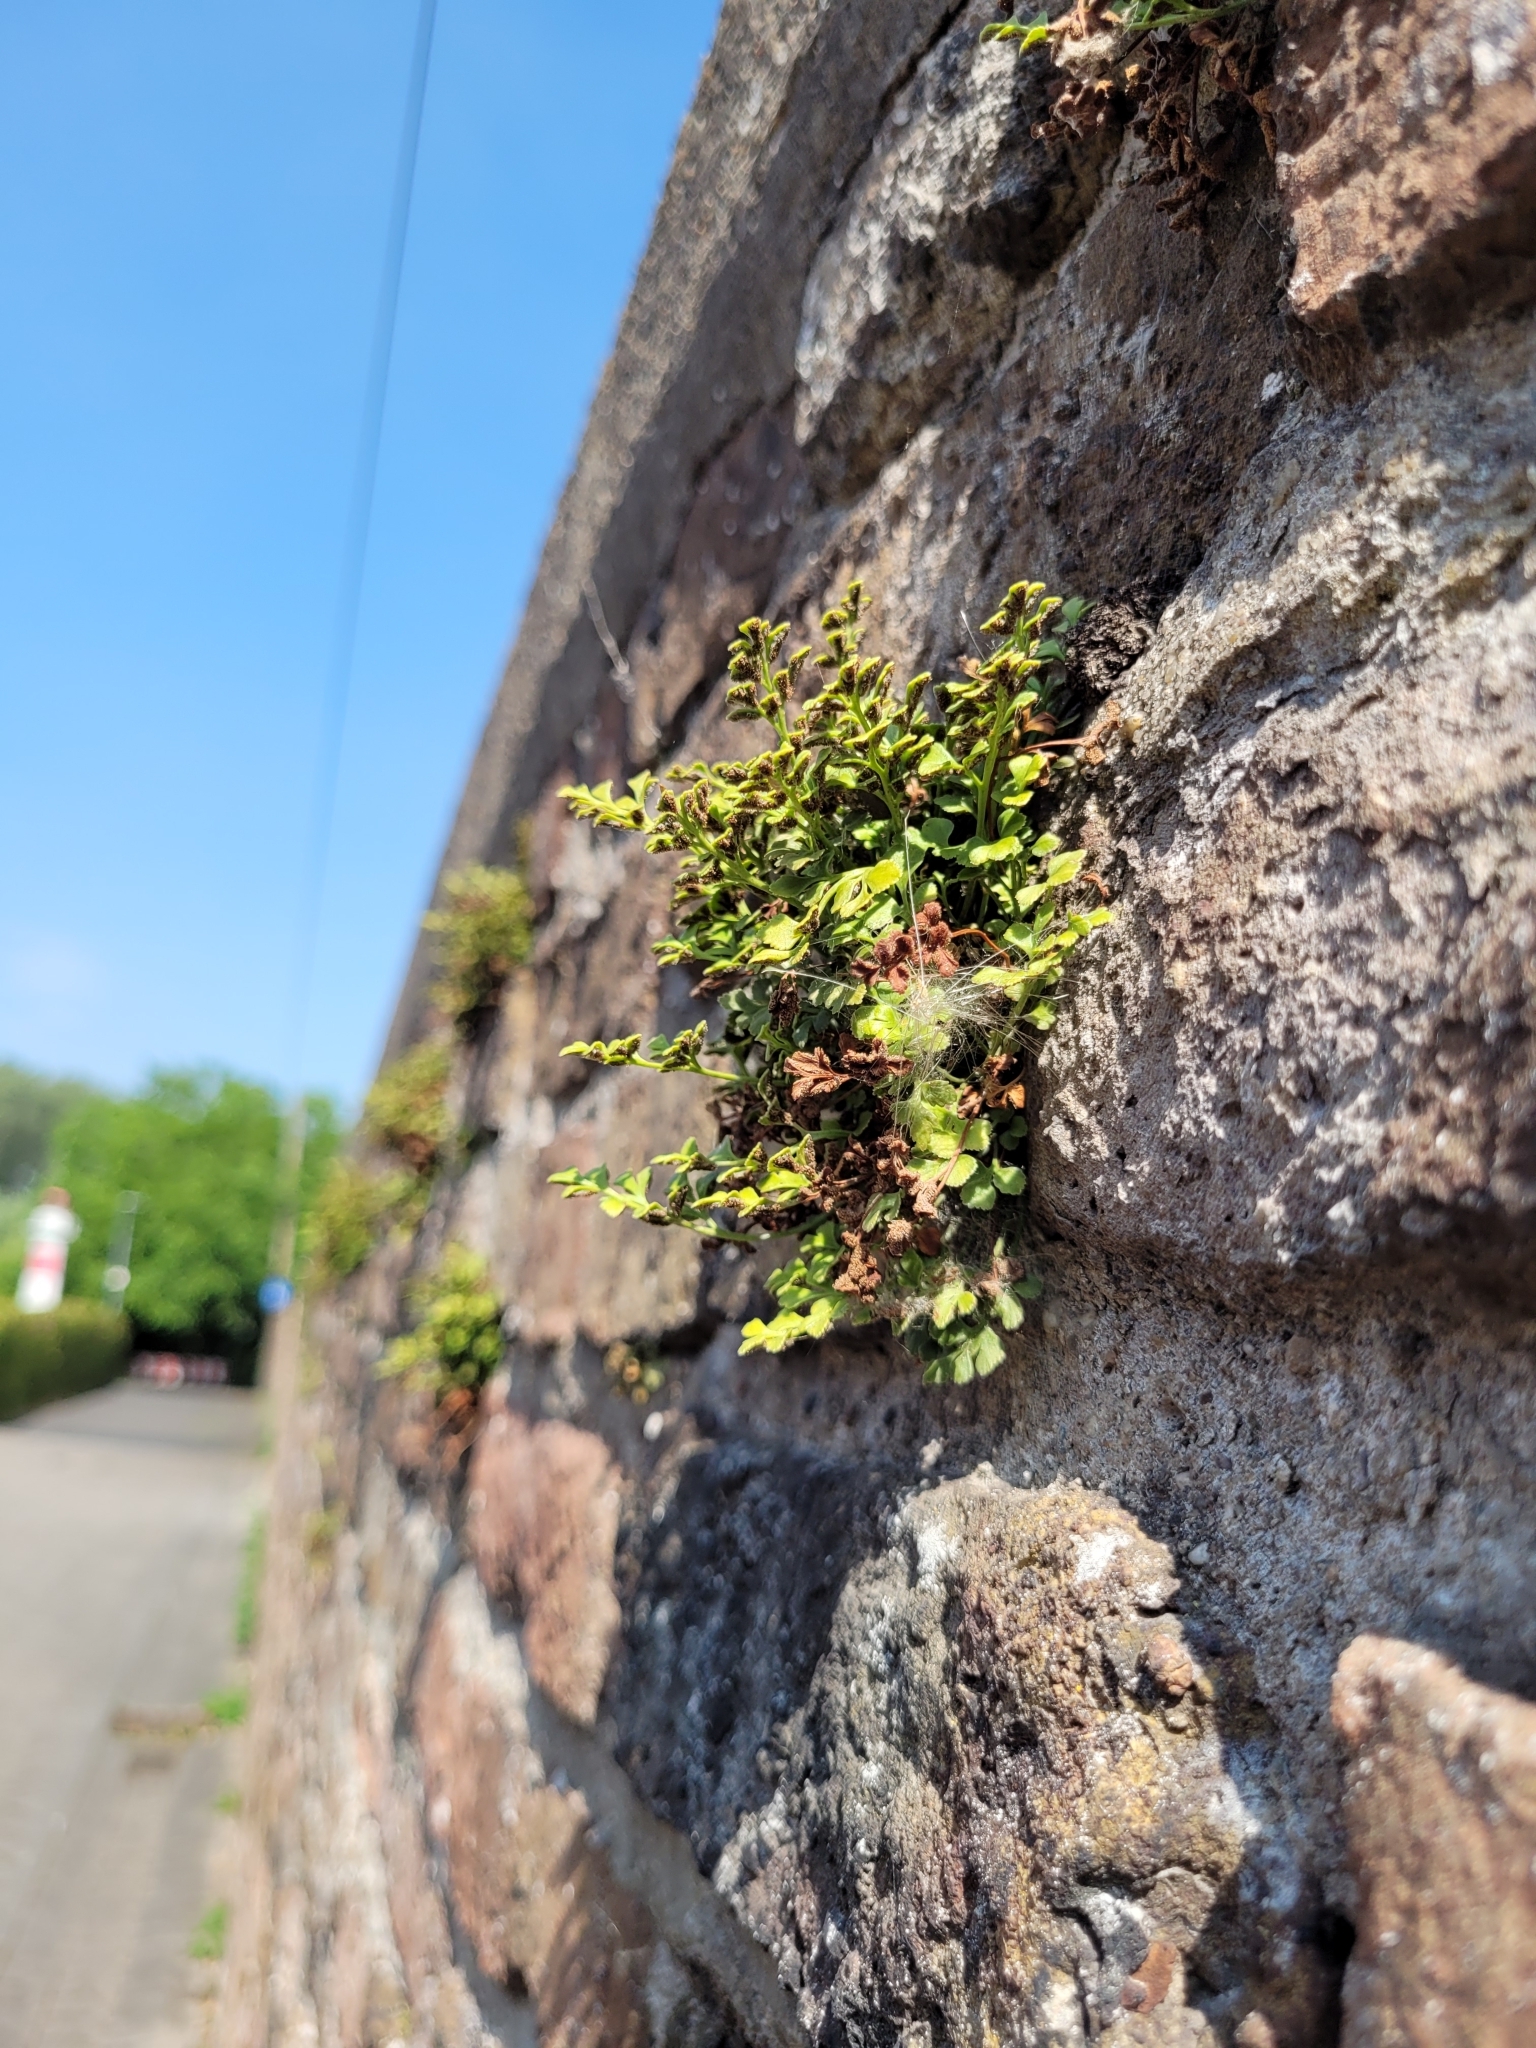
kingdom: Plantae
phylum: Tracheophyta
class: Polypodiopsida
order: Polypodiales
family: Aspleniaceae
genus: Asplenium
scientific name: Asplenium ruta-muraria
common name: Wall-rue
